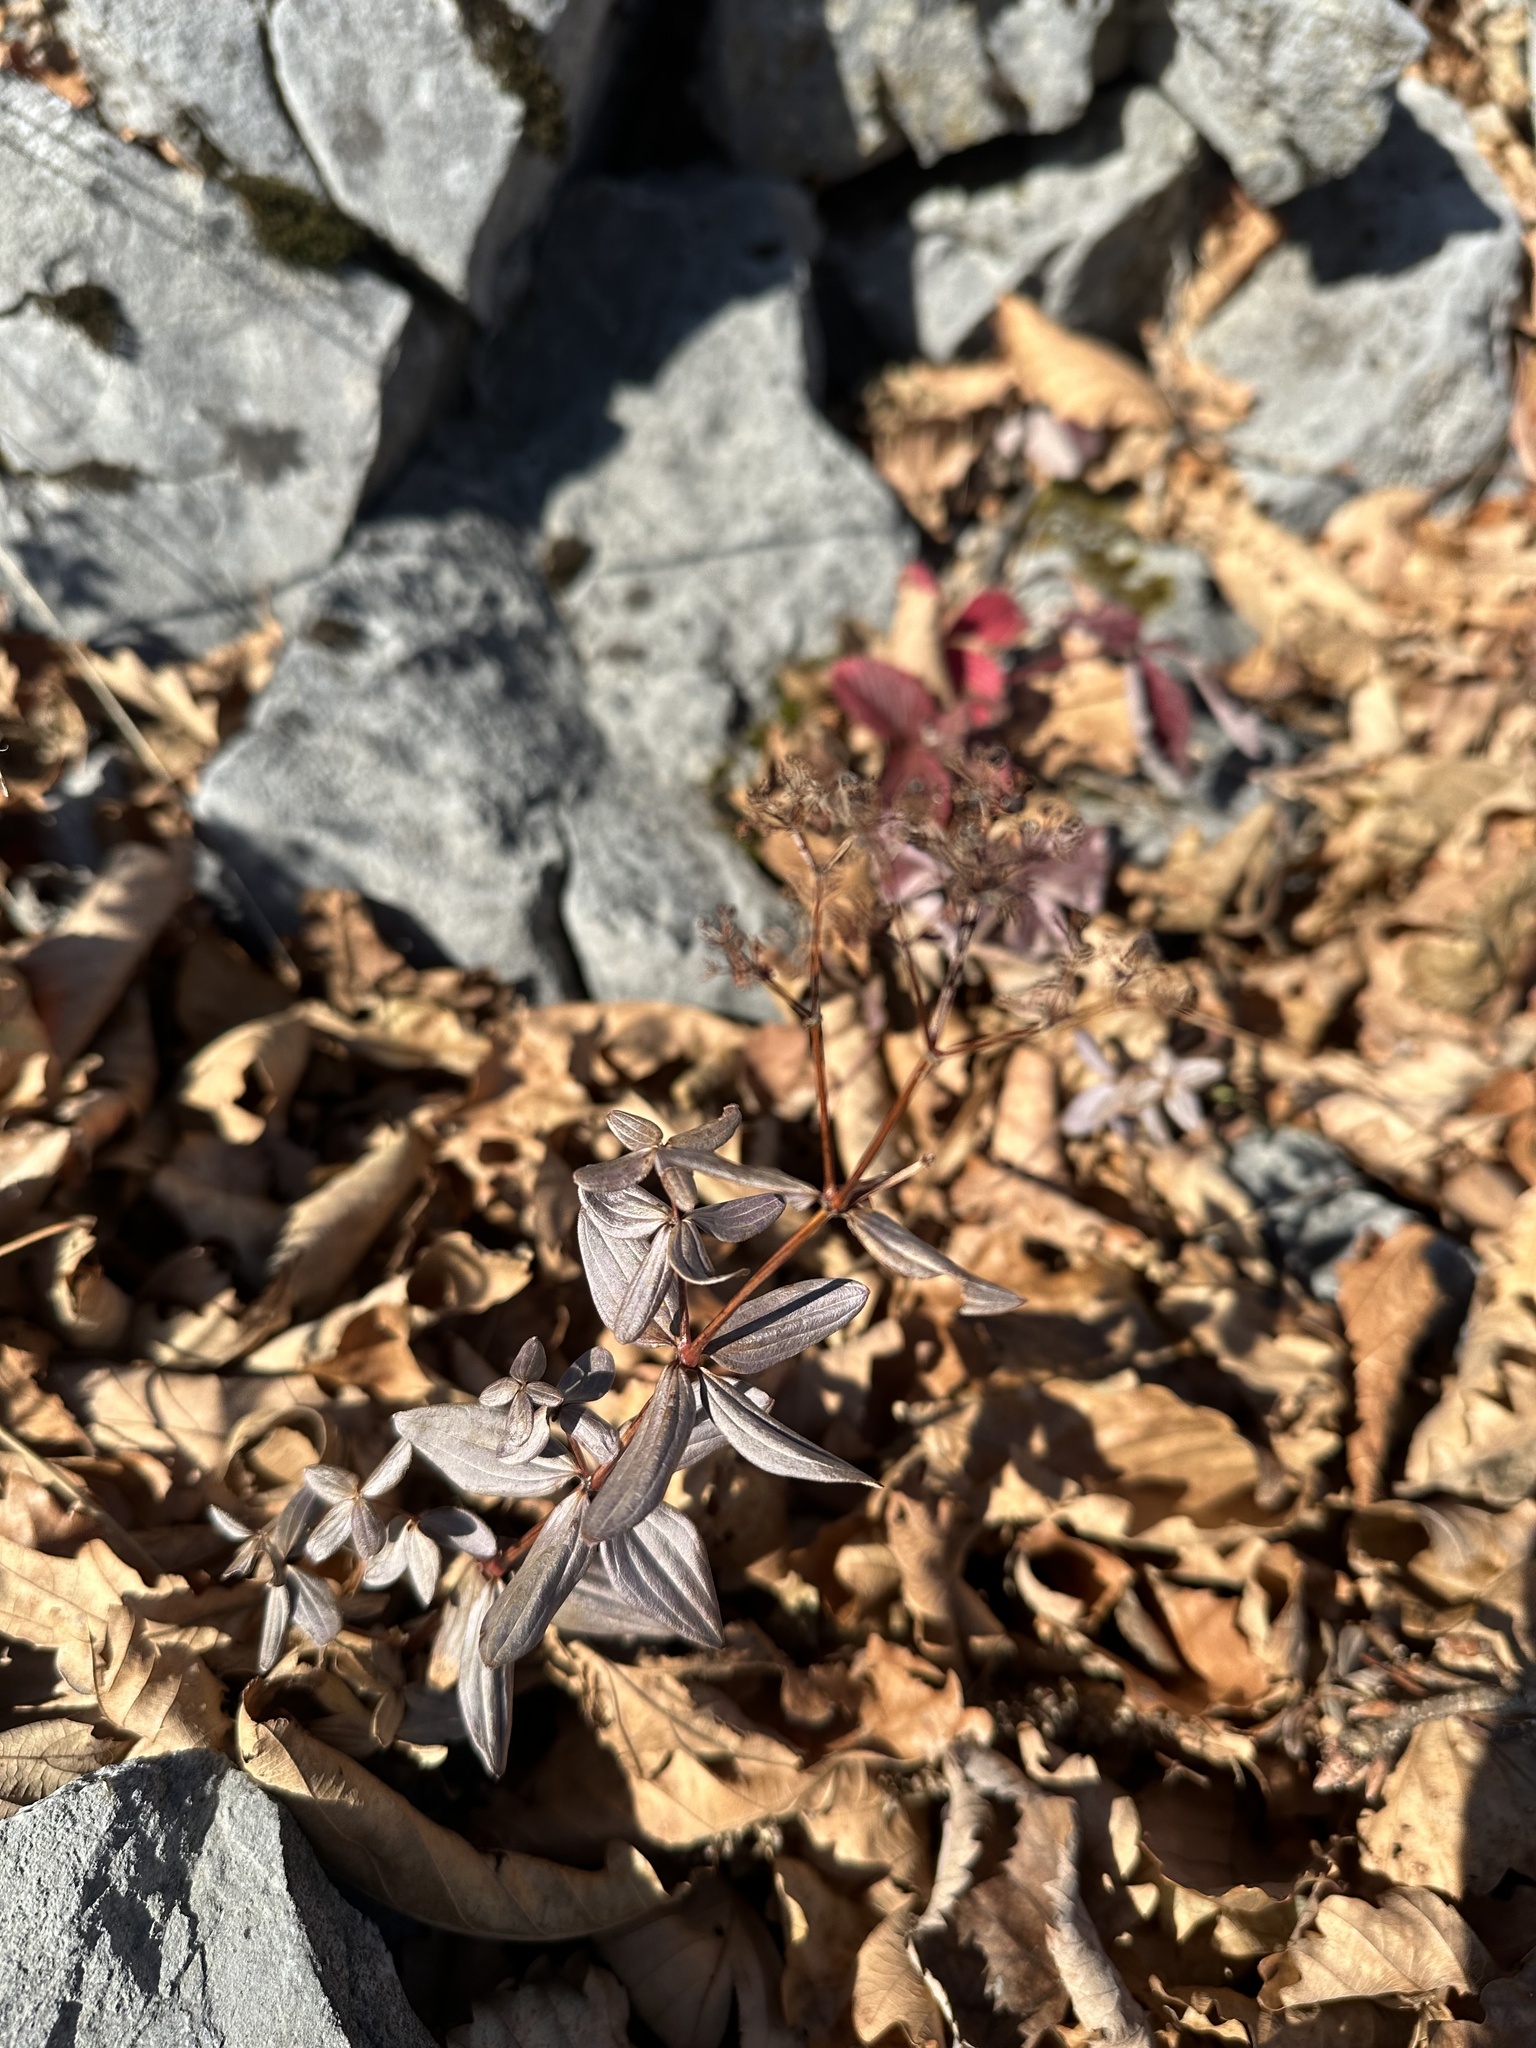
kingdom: Plantae
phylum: Tracheophyta
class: Magnoliopsida
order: Gentianales
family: Rubiaceae
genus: Galium
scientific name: Galium platygalium
